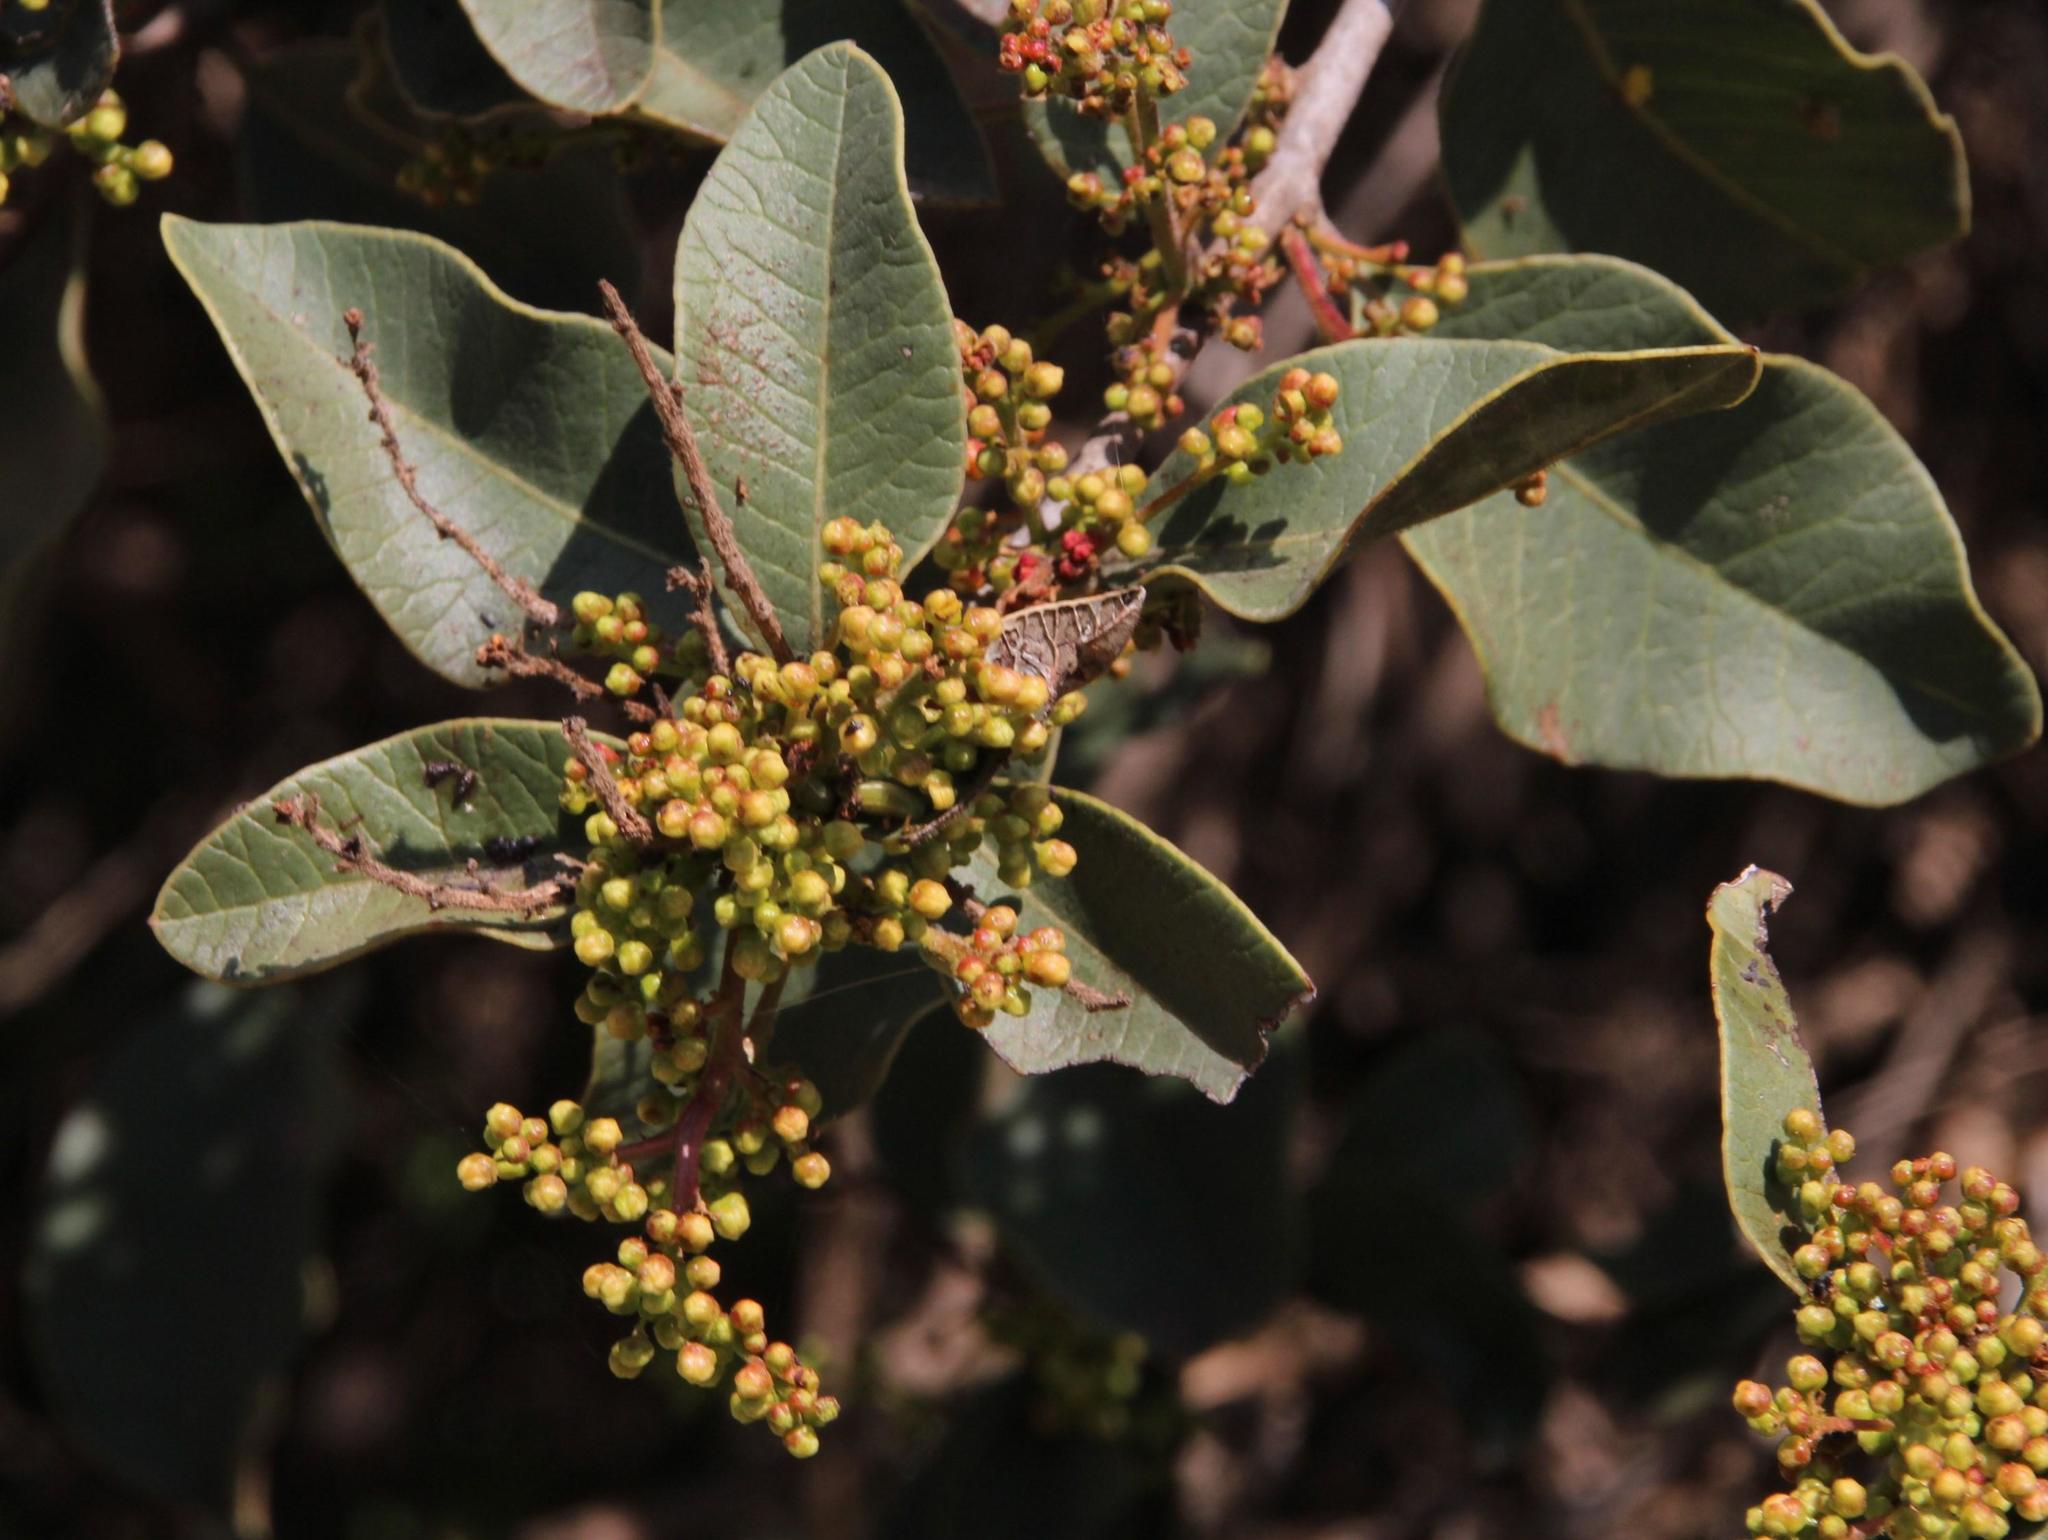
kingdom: Plantae
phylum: Tracheophyta
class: Magnoliopsida
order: Sapindales
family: Anacardiaceae
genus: Lithraea
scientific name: Lithraea caustica
